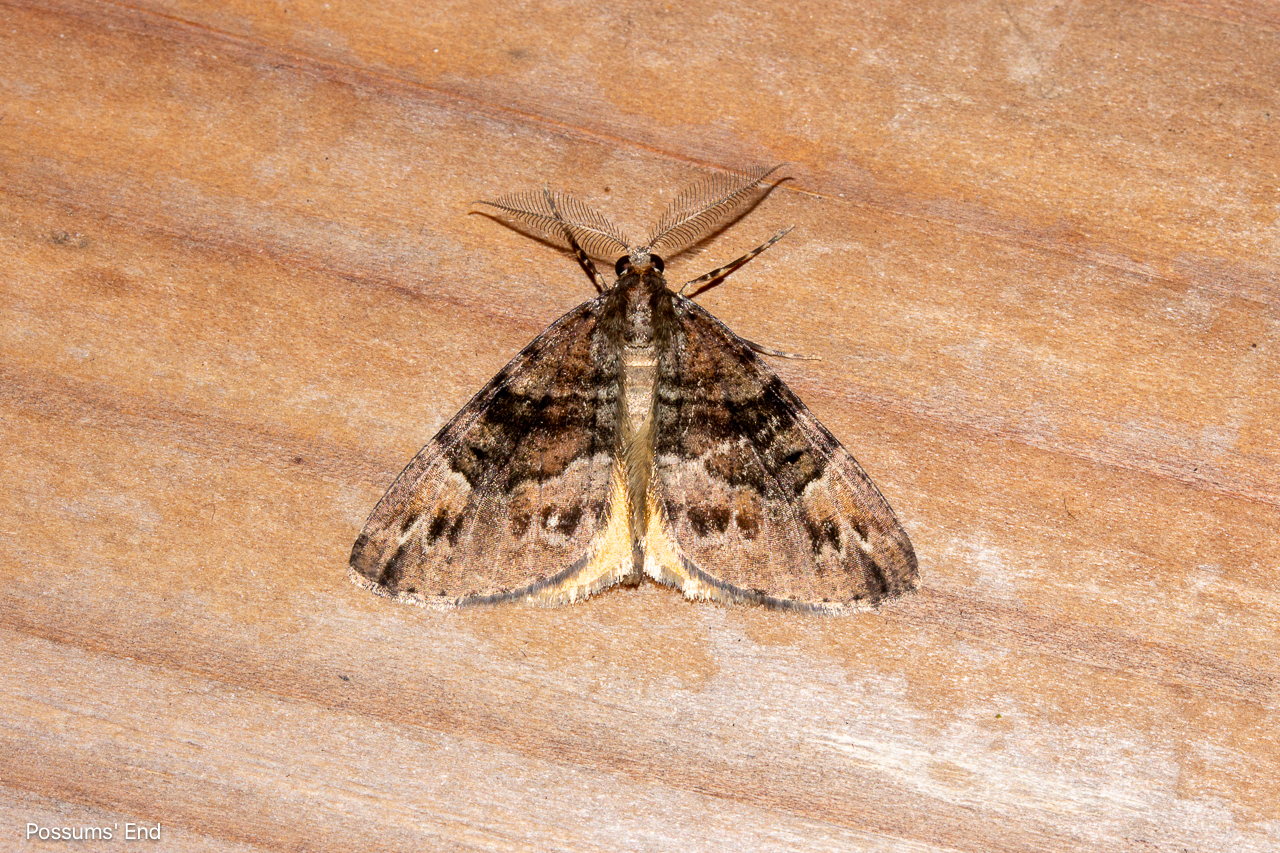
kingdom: Animalia
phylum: Arthropoda
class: Insecta
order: Lepidoptera
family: Geometridae
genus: Pseudocoremia
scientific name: Pseudocoremia productata
